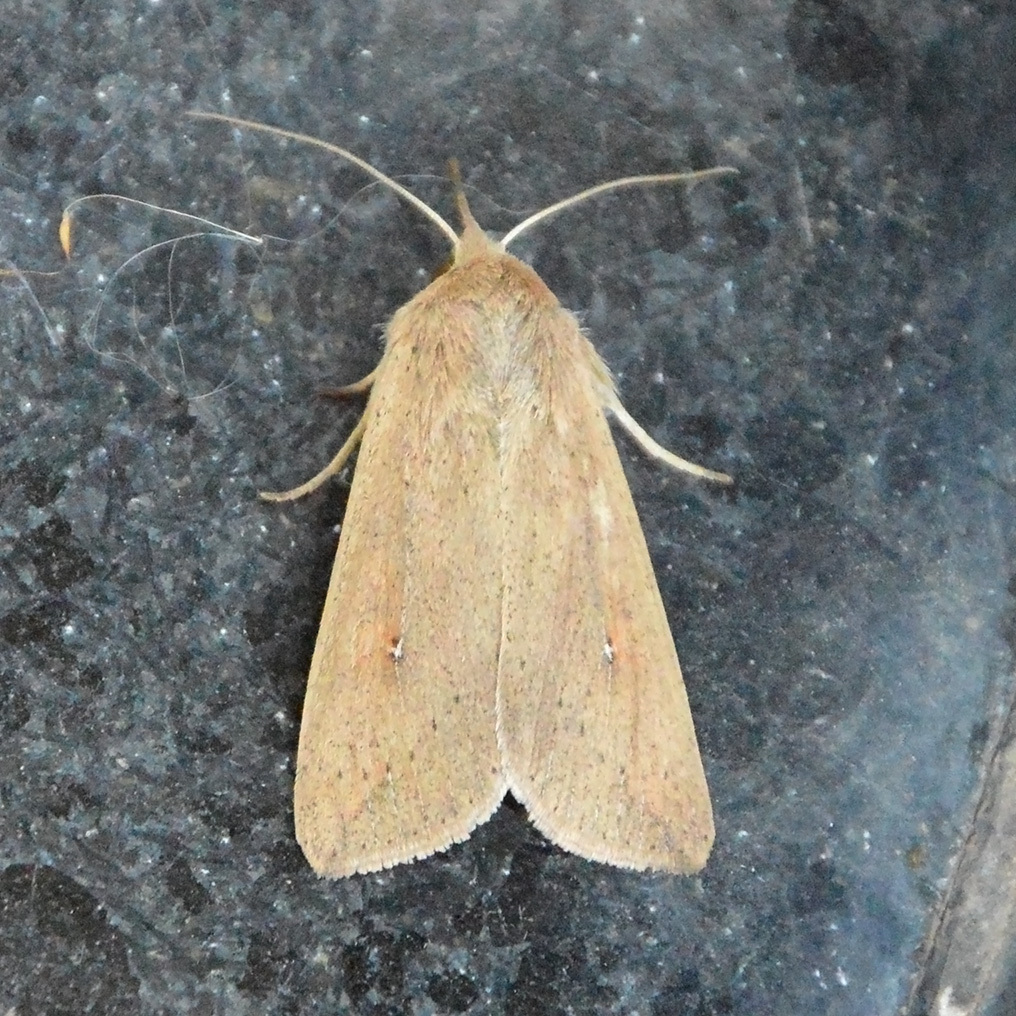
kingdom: Animalia
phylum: Arthropoda
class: Insecta
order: Lepidoptera
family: Noctuidae
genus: Mythimna
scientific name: Mythimna unipuncta
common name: White-speck
